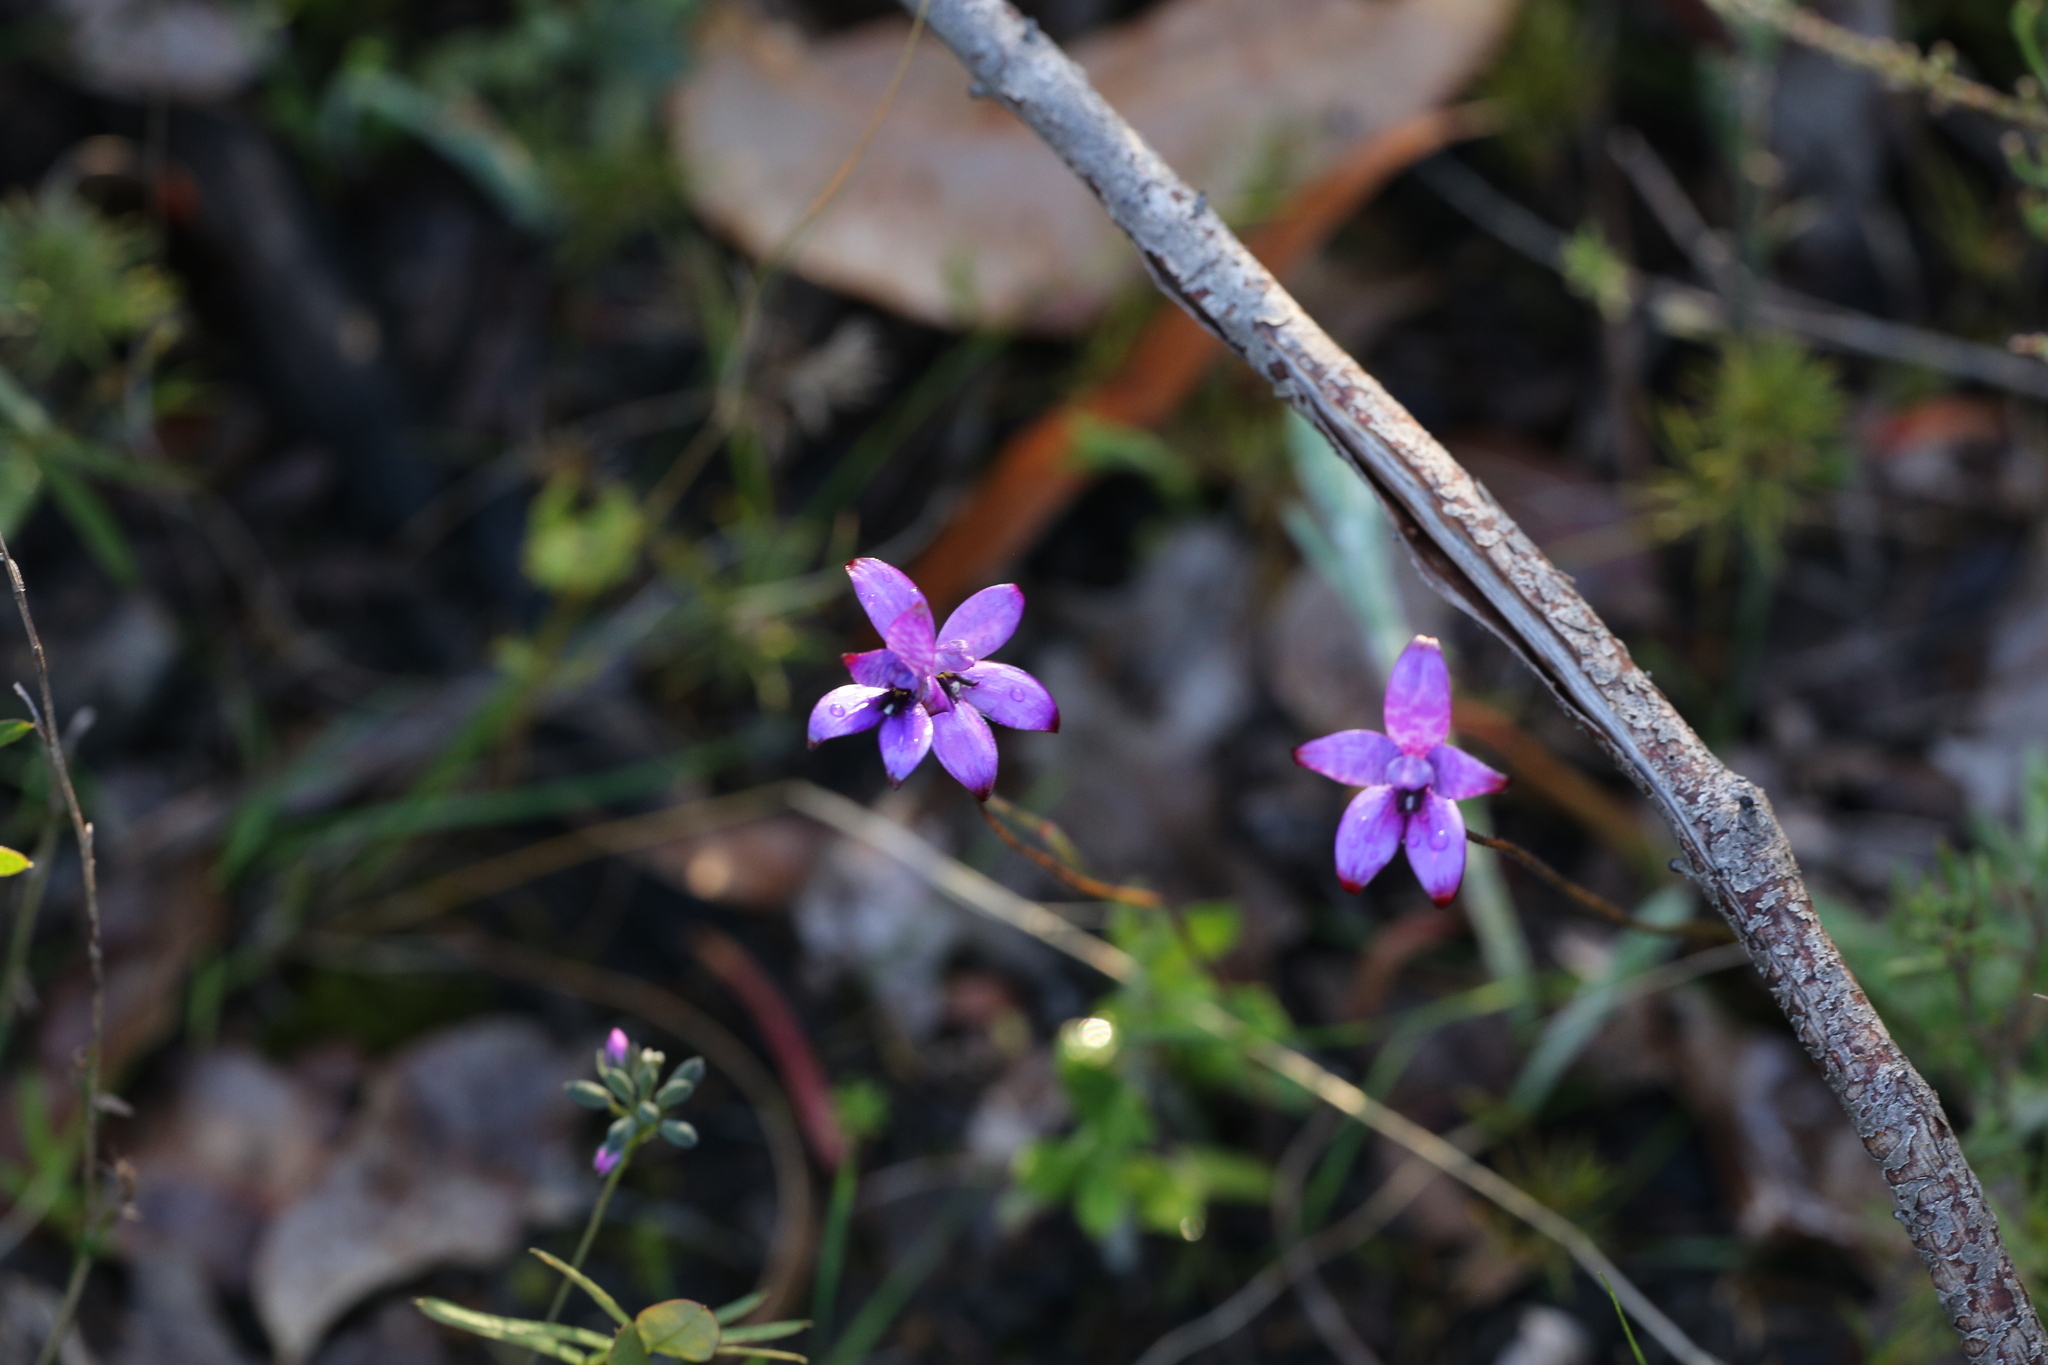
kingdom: Plantae
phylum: Tracheophyta
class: Liliopsida
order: Asparagales
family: Orchidaceae
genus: Caladenia
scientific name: Caladenia brunonis
